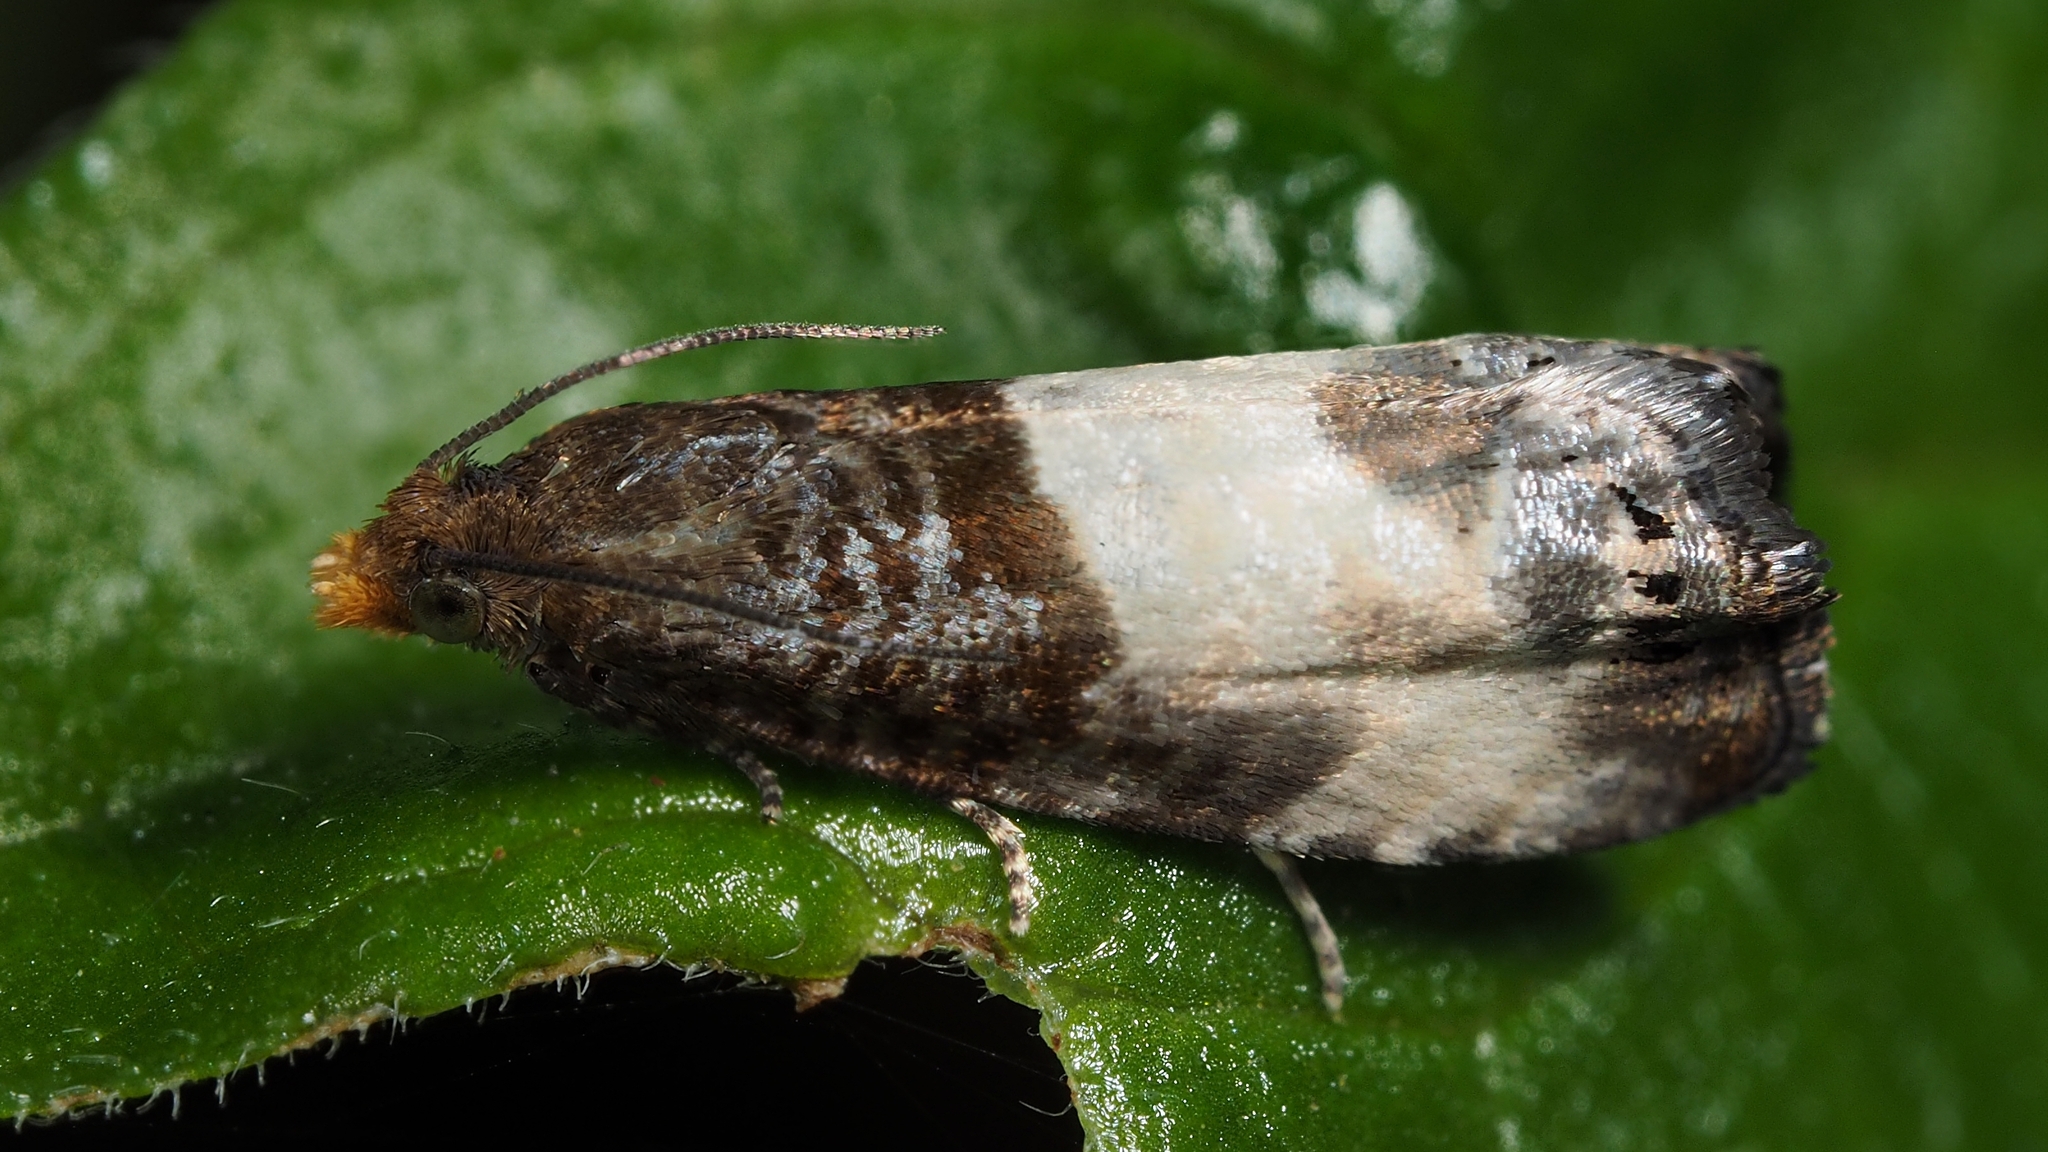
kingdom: Animalia
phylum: Arthropoda
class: Insecta
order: Lepidoptera
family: Tortricidae
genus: Notocelia
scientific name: Notocelia cynosbatella
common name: Yellow-faced bell moth
